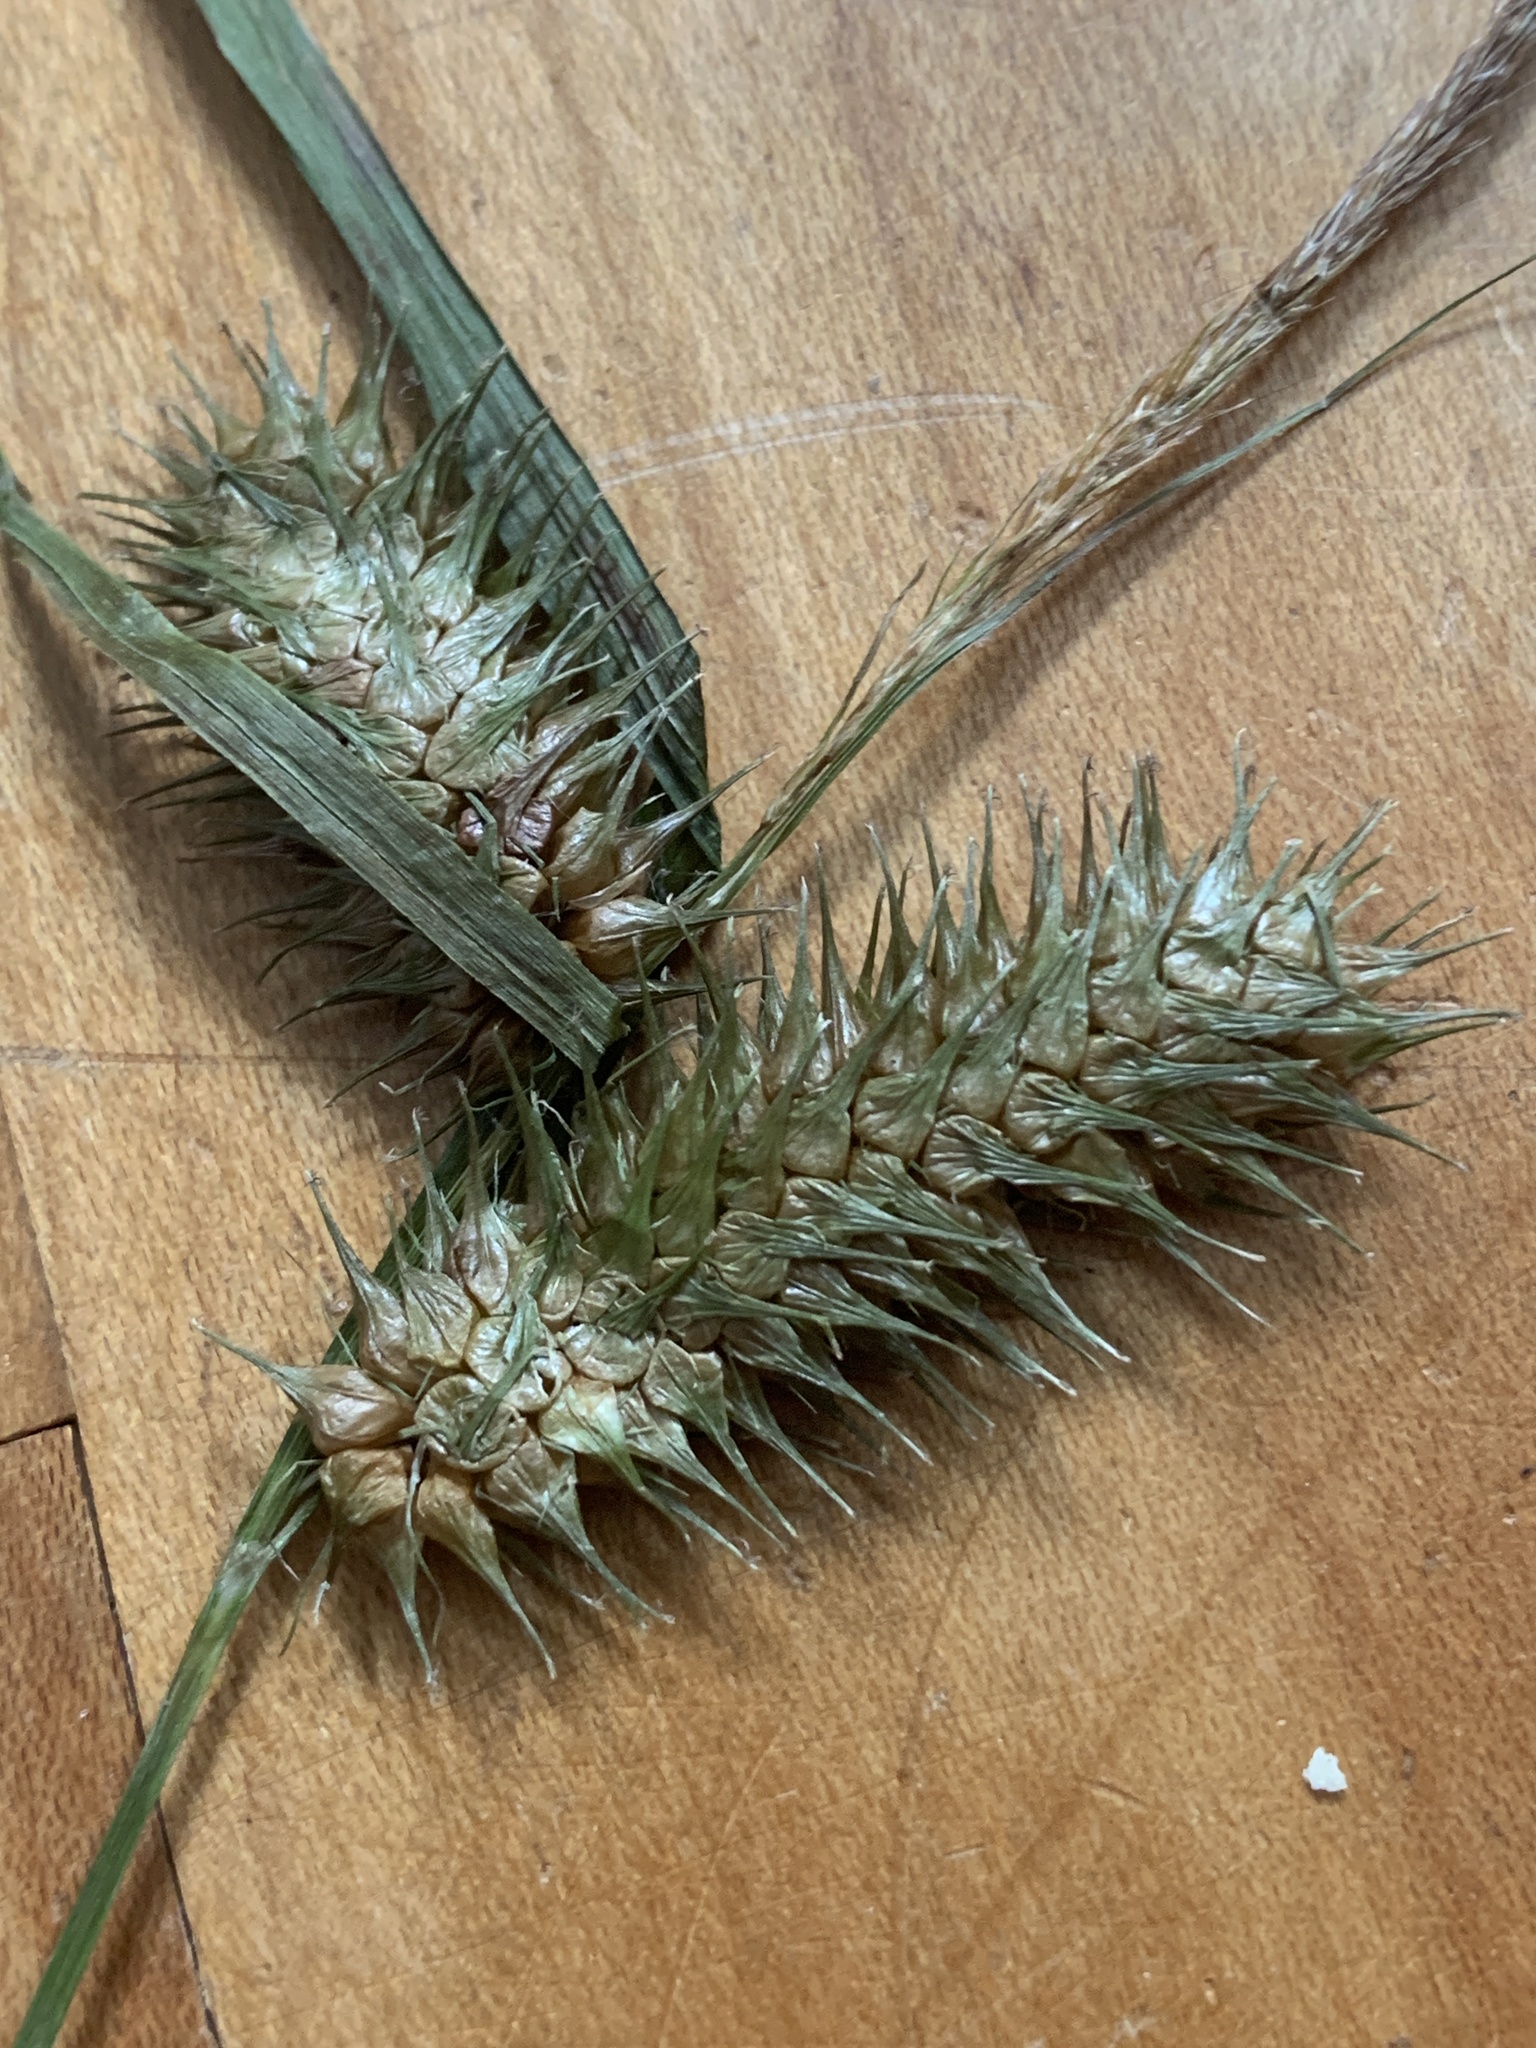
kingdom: Plantae
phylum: Tracheophyta
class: Liliopsida
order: Poales
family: Cyperaceae
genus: Carex
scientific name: Carex lurida
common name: Sallow sedge
